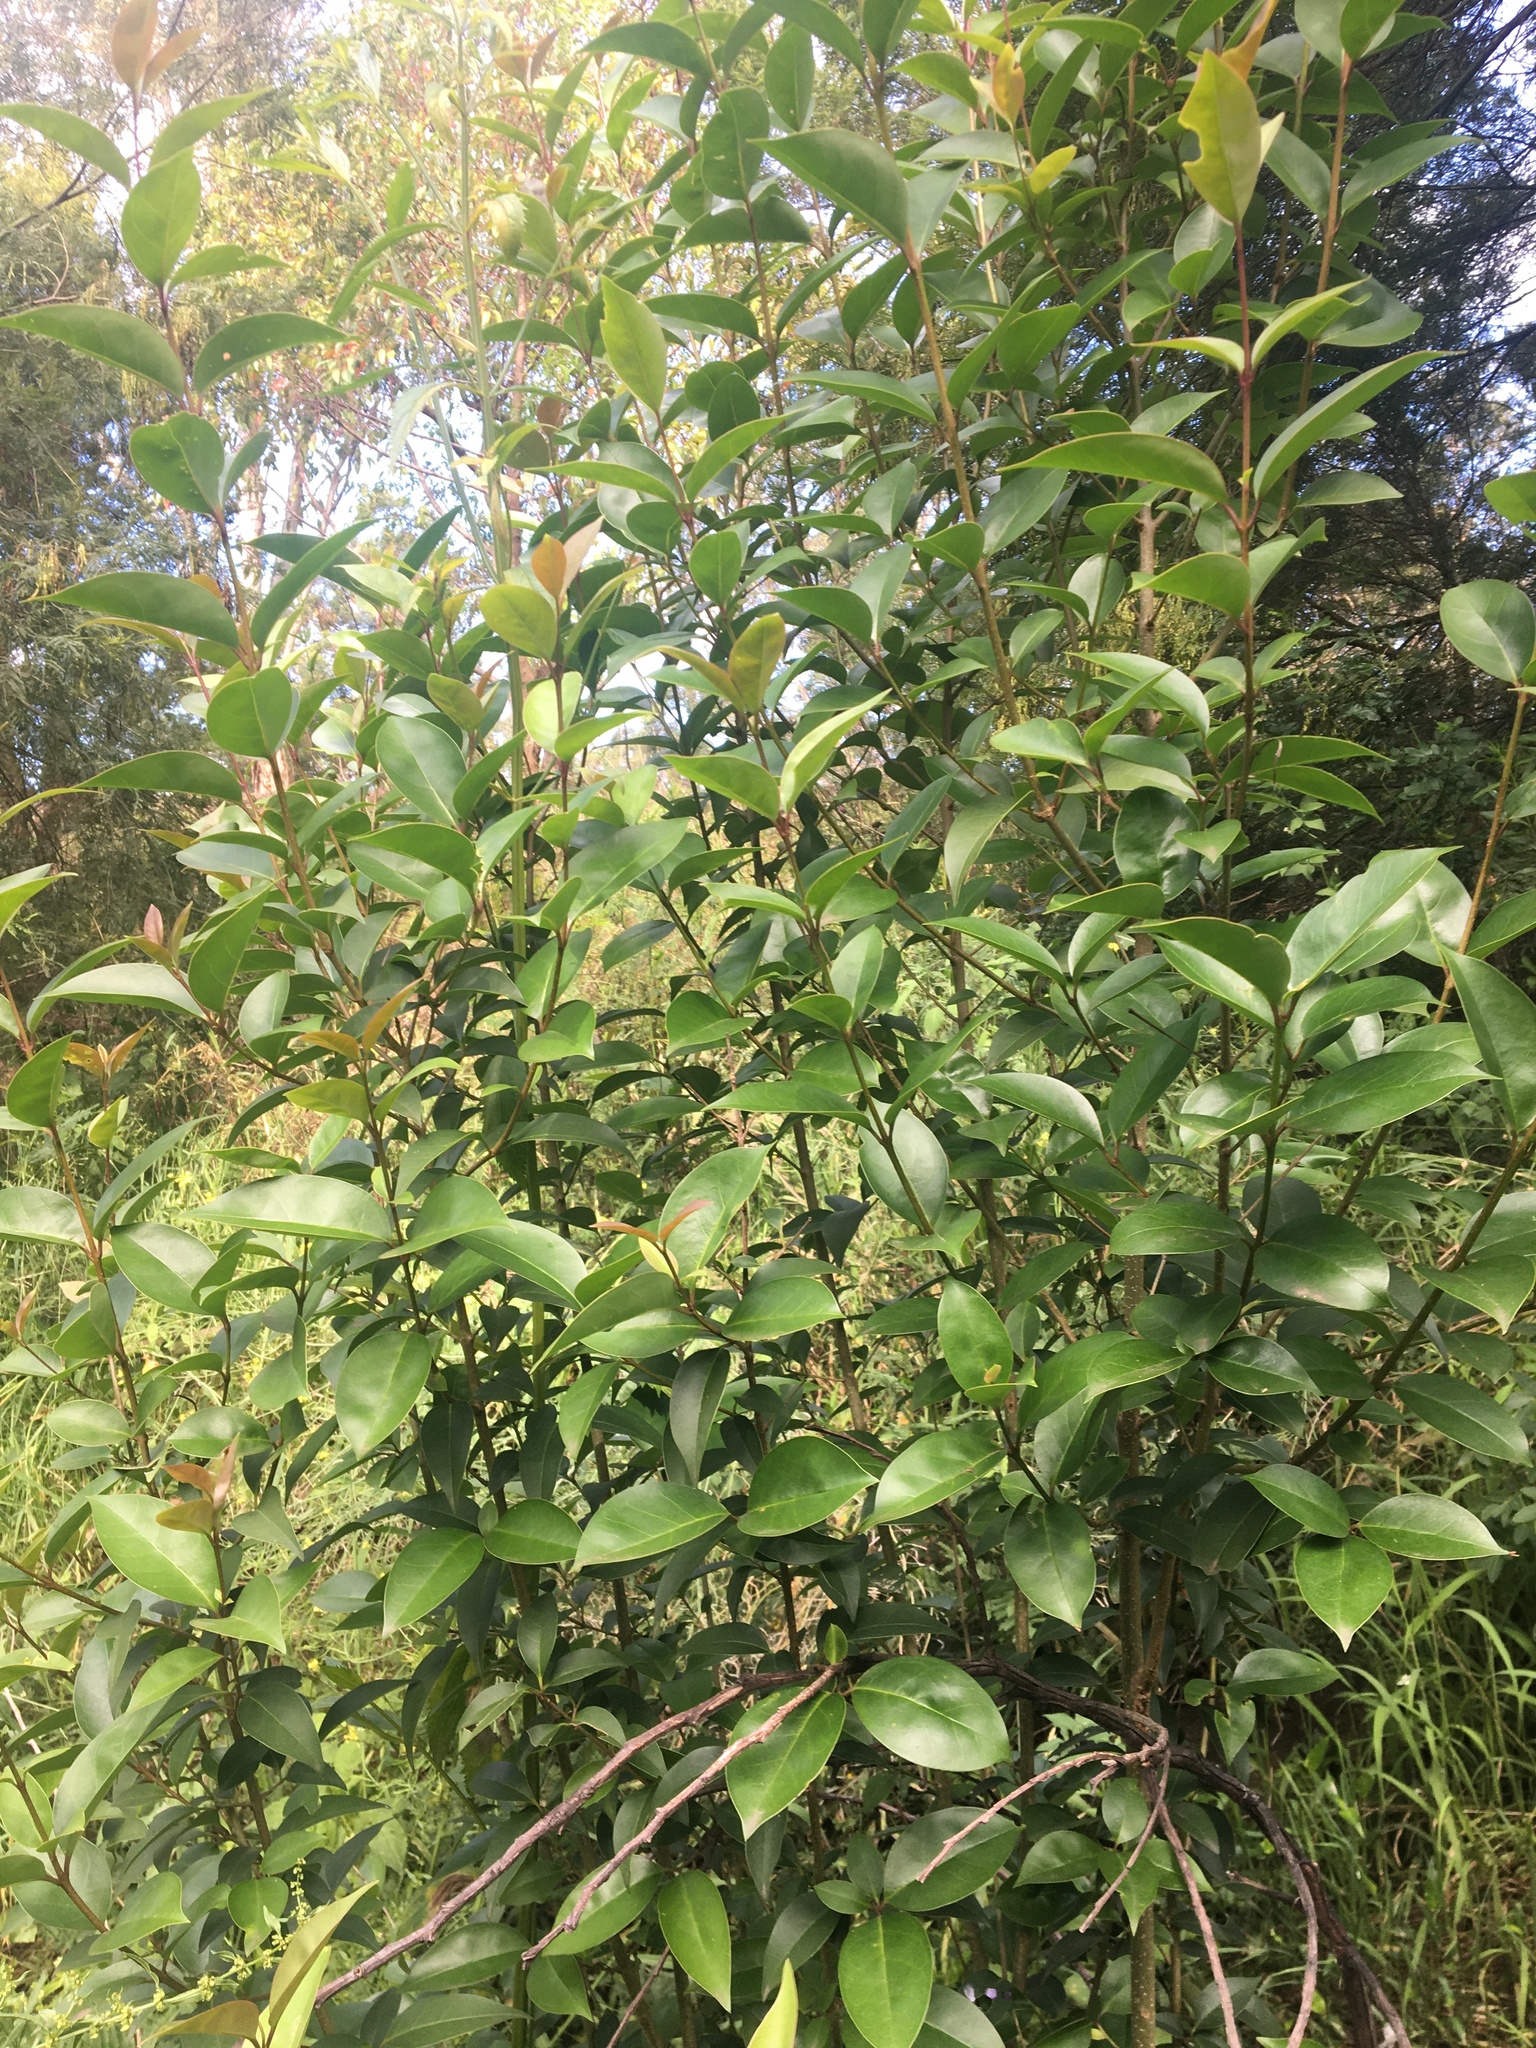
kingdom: Plantae
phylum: Tracheophyta
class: Magnoliopsida
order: Lamiales
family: Oleaceae
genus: Ligustrum
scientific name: Ligustrum lucidum
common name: Glossy privet
